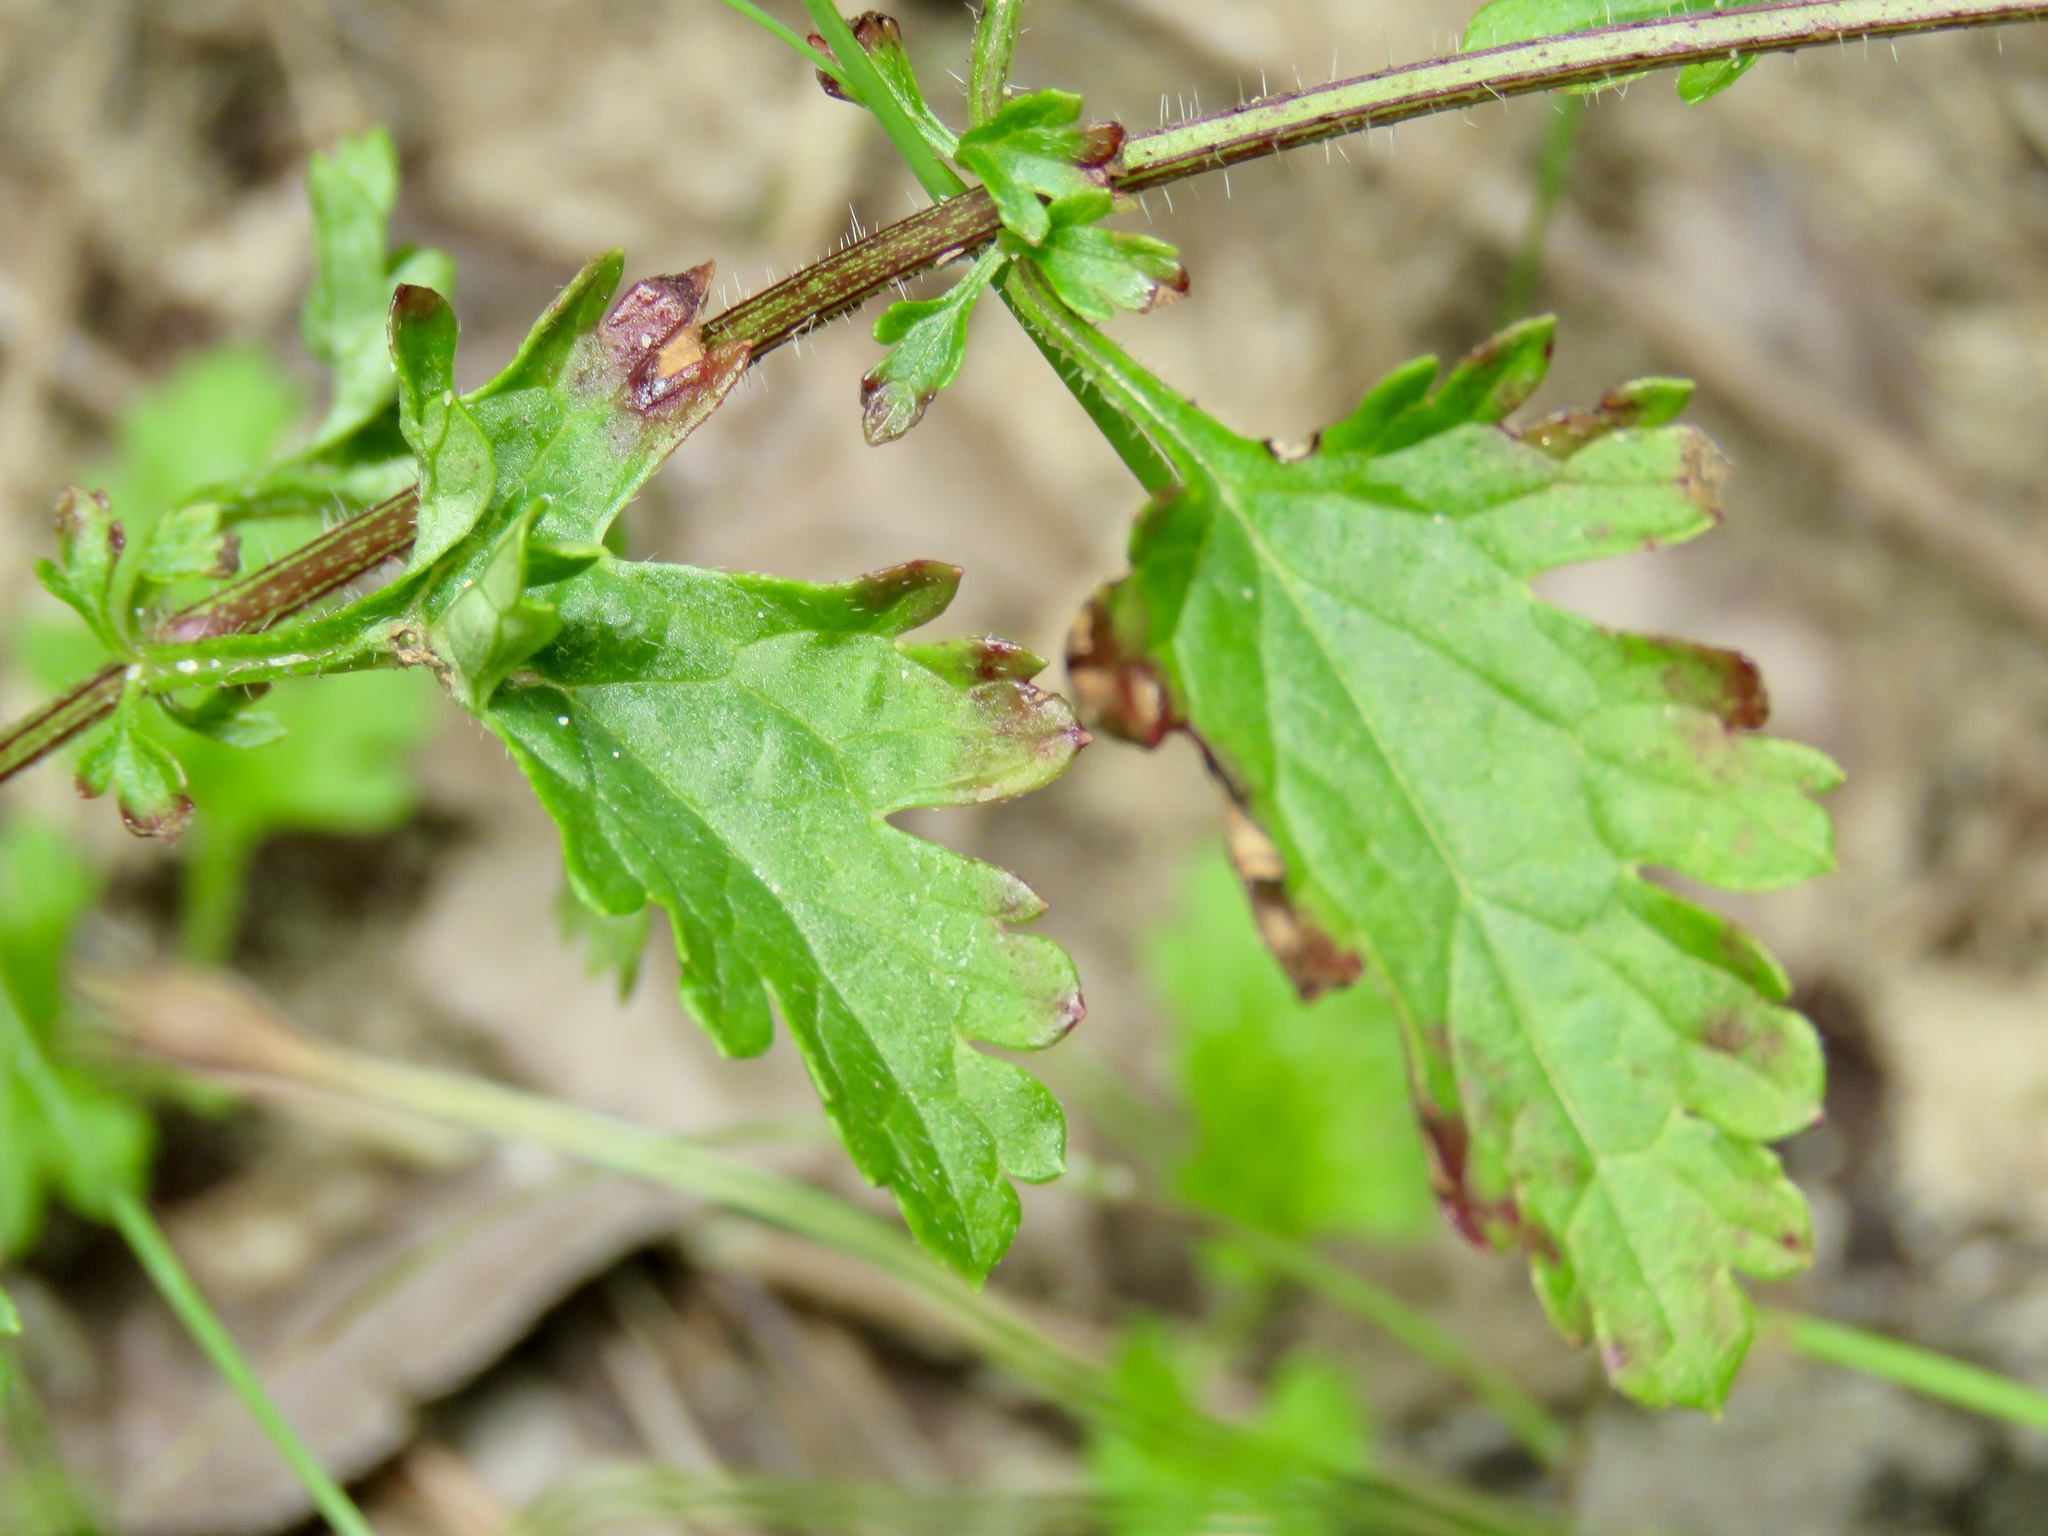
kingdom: Plantae
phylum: Tracheophyta
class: Magnoliopsida
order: Lamiales
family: Verbenaceae
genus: Verbena
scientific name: Verbena canadensis
